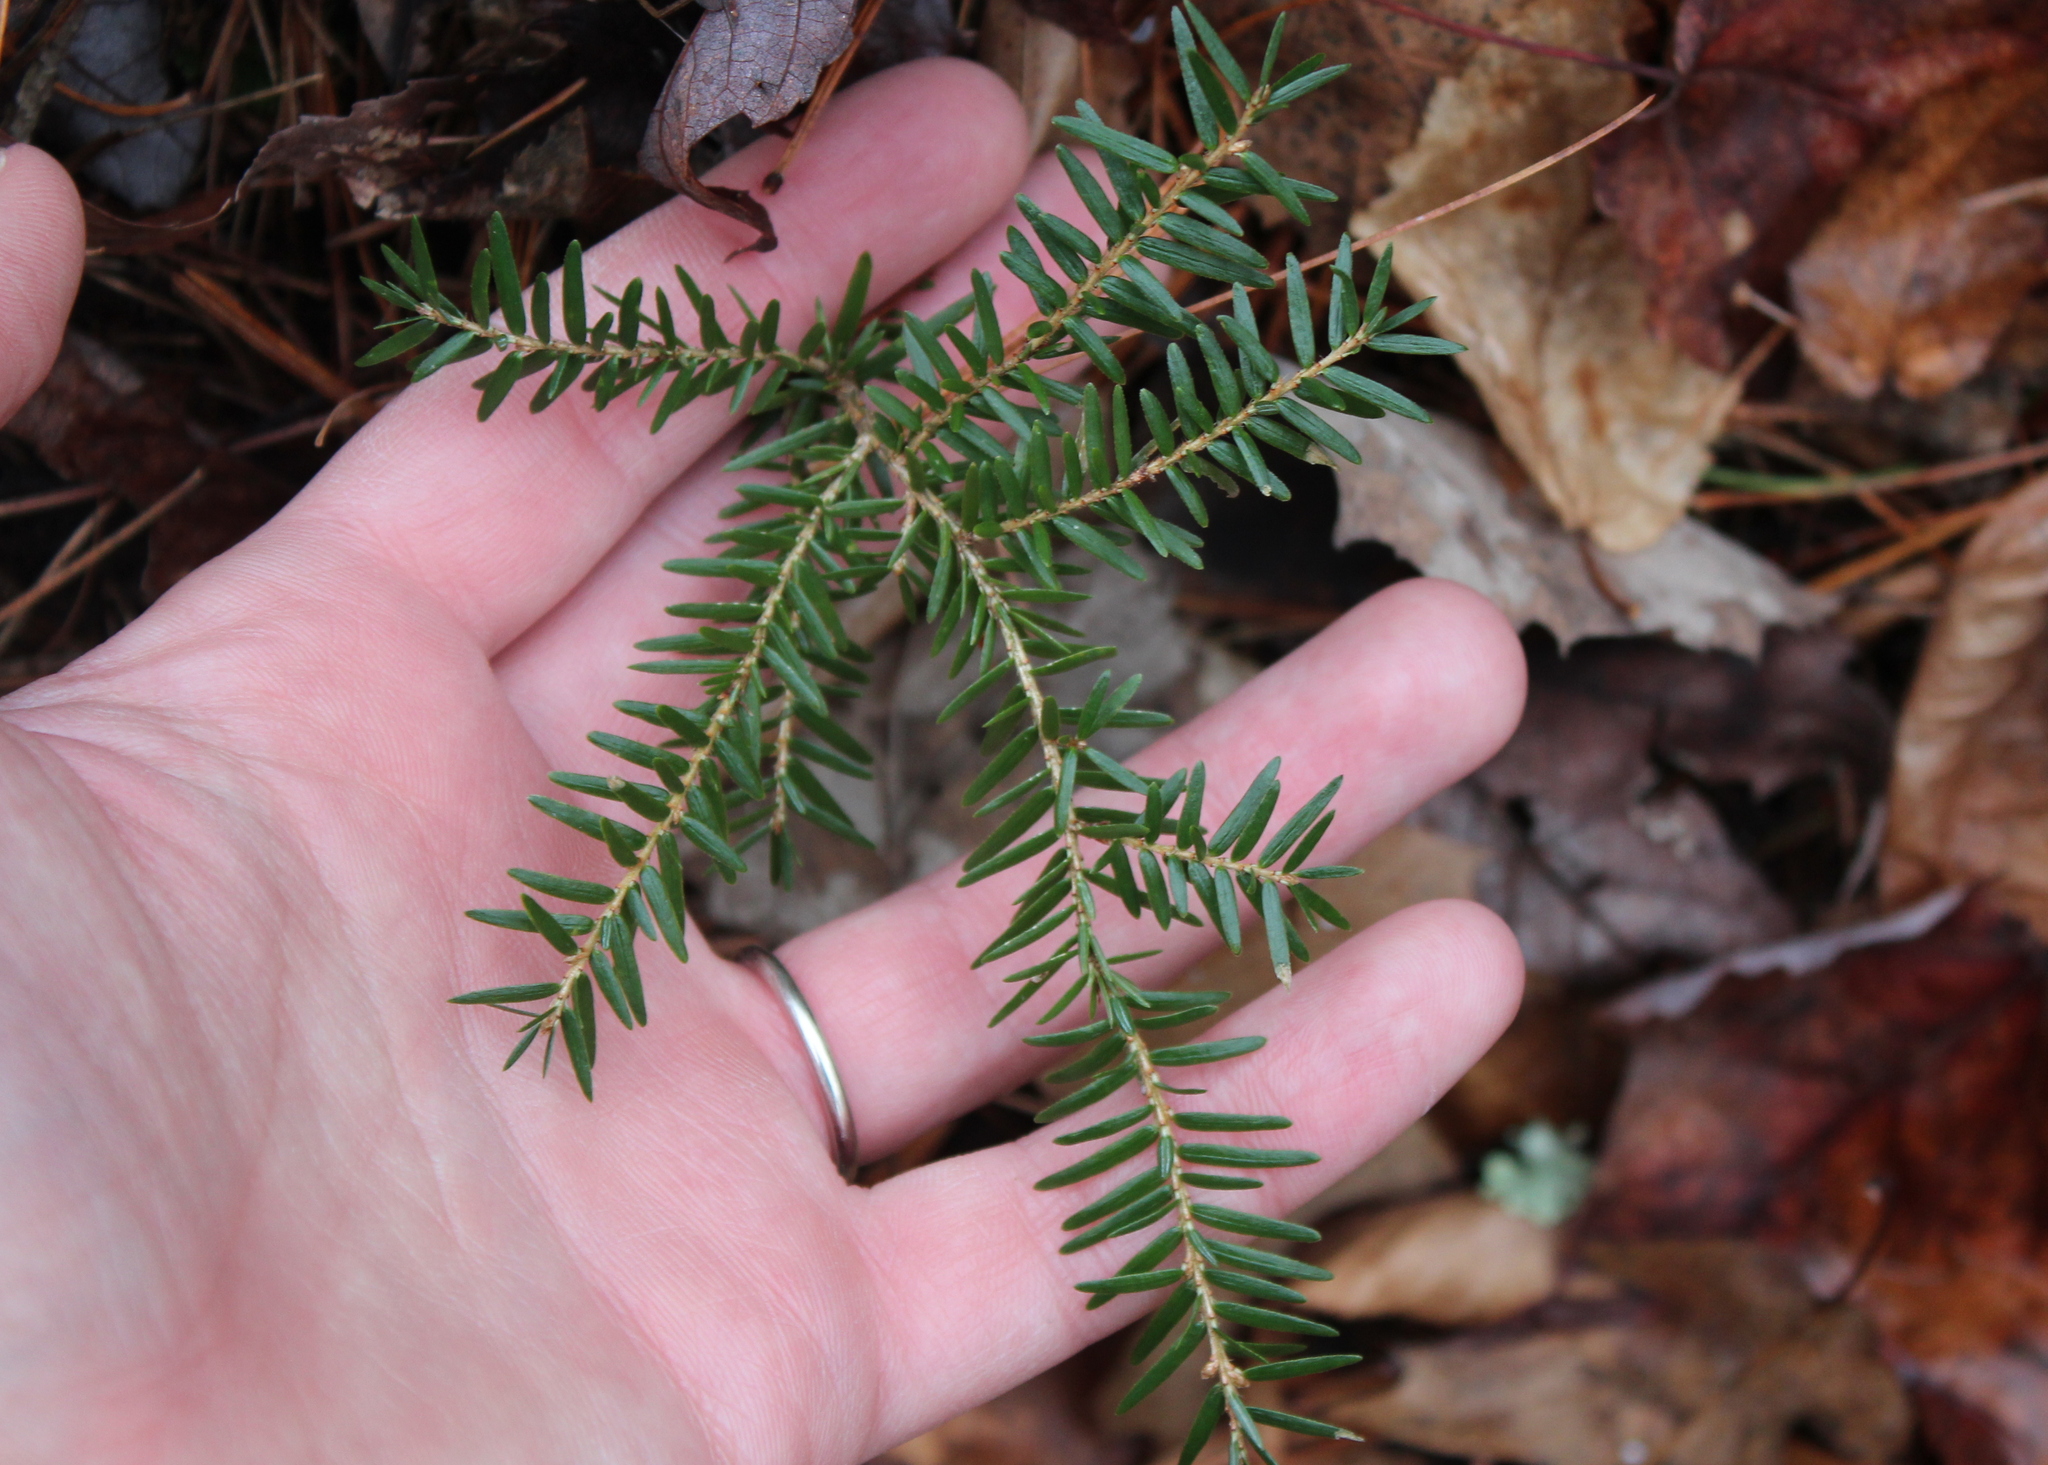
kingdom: Plantae
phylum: Tracheophyta
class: Pinopsida
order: Pinales
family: Pinaceae
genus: Tsuga
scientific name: Tsuga canadensis
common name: Eastern hemlock
